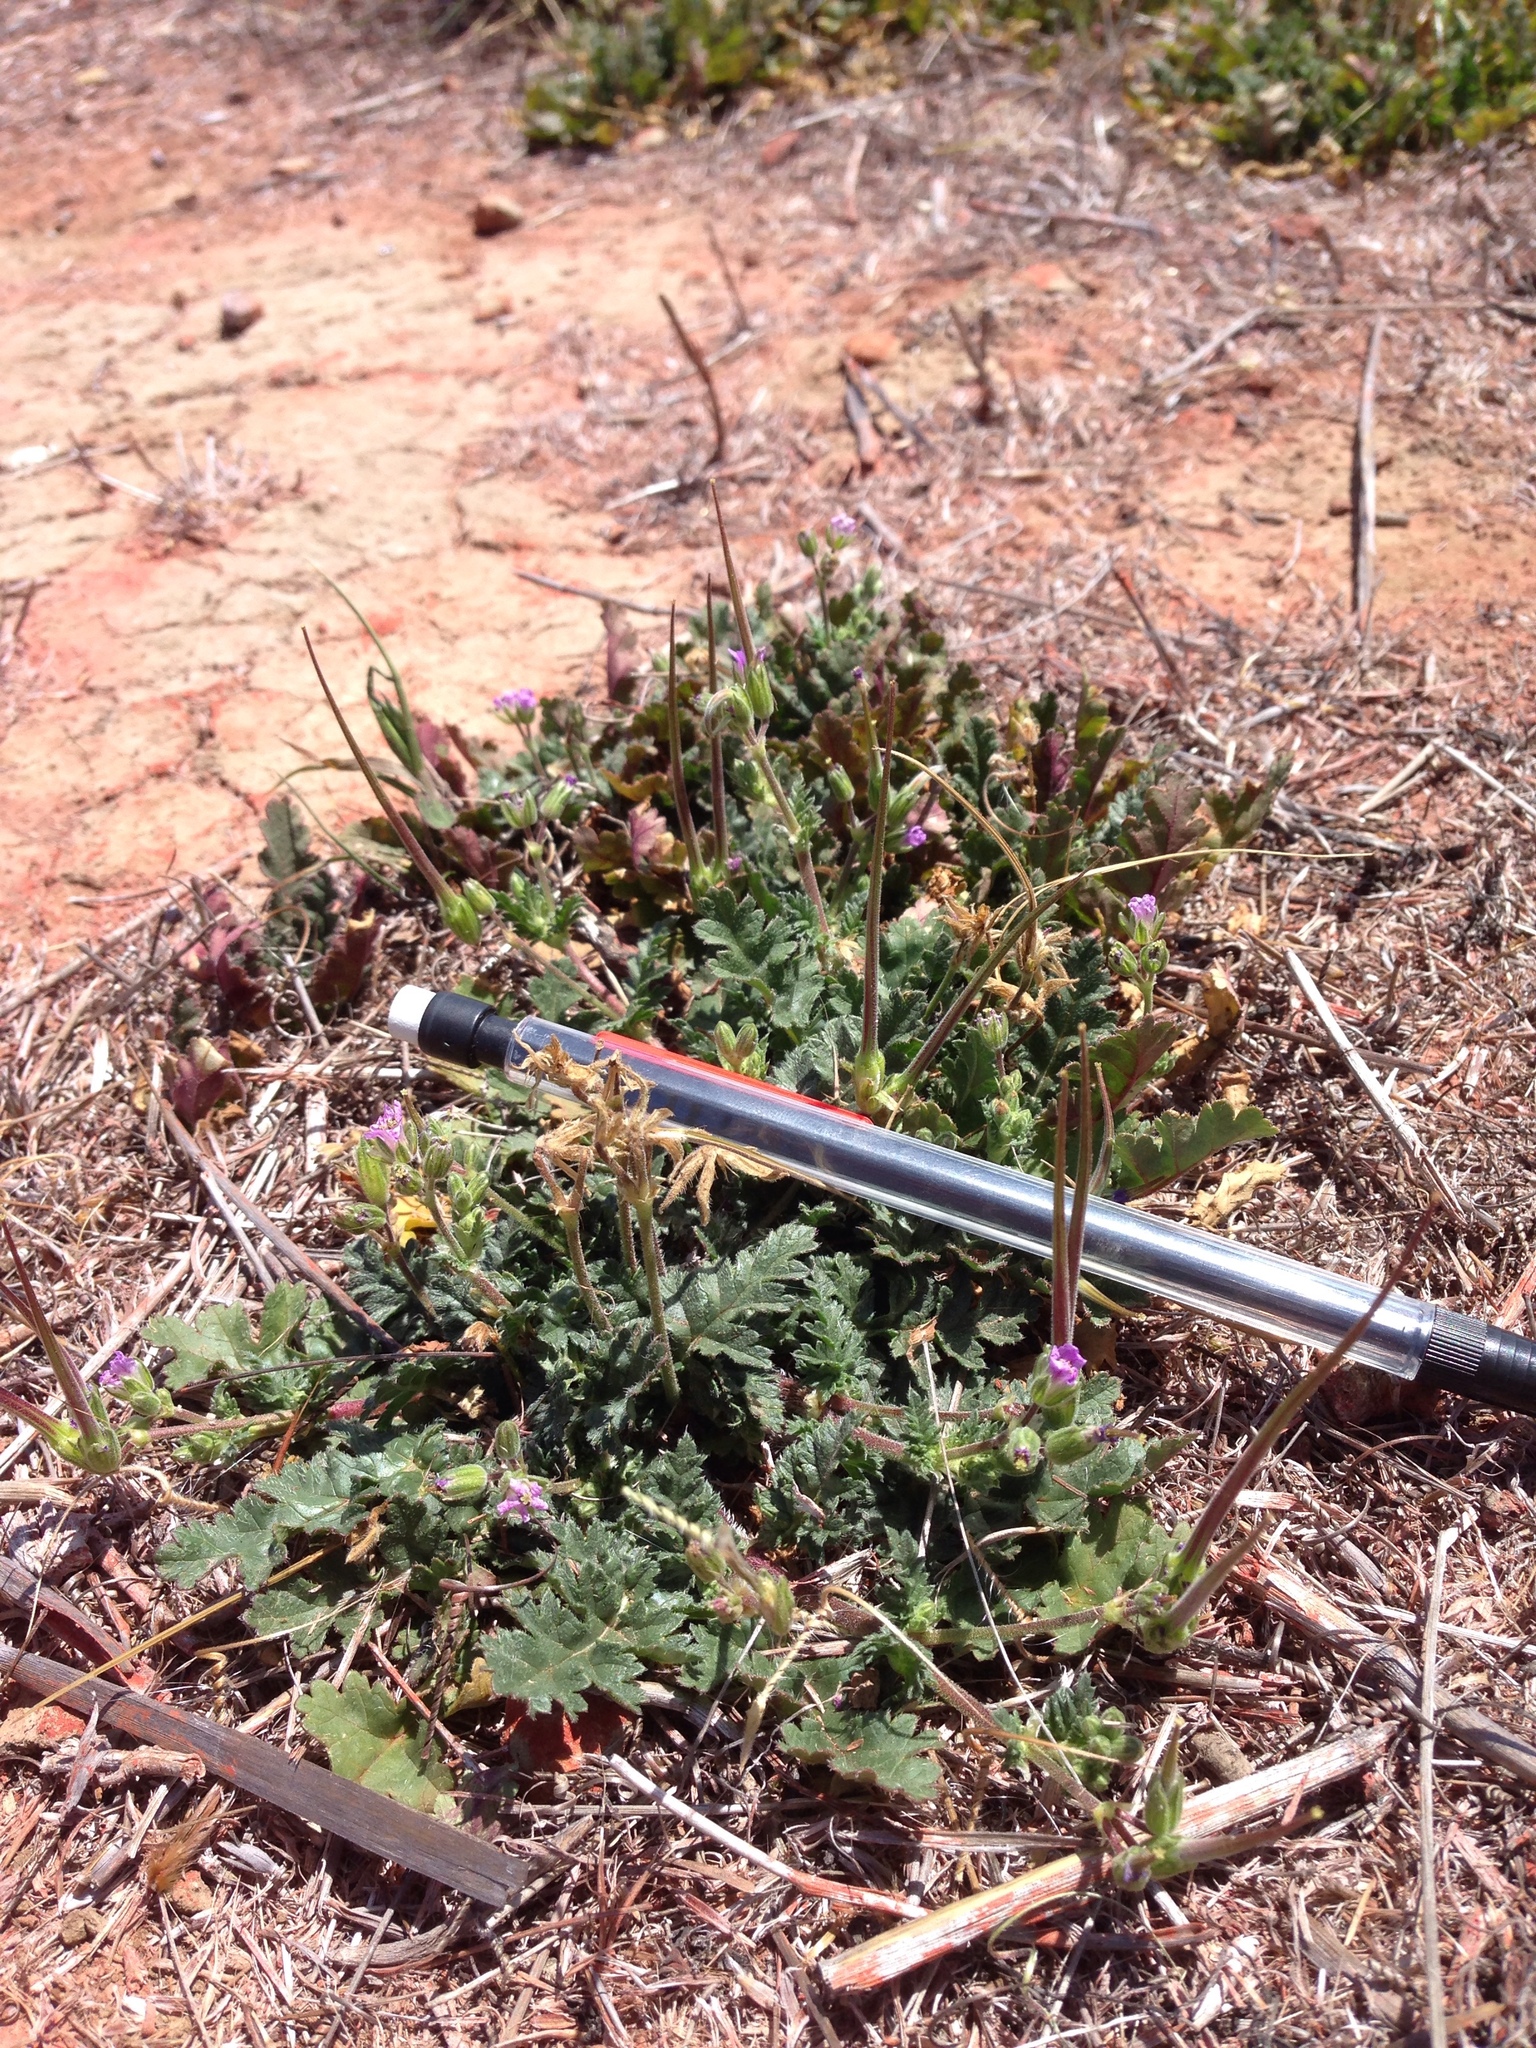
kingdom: Plantae
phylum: Tracheophyta
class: Magnoliopsida
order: Geraniales
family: Geraniaceae
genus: Erodium
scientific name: Erodium brachycarpum
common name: Hairy-pitted stork's-bill
